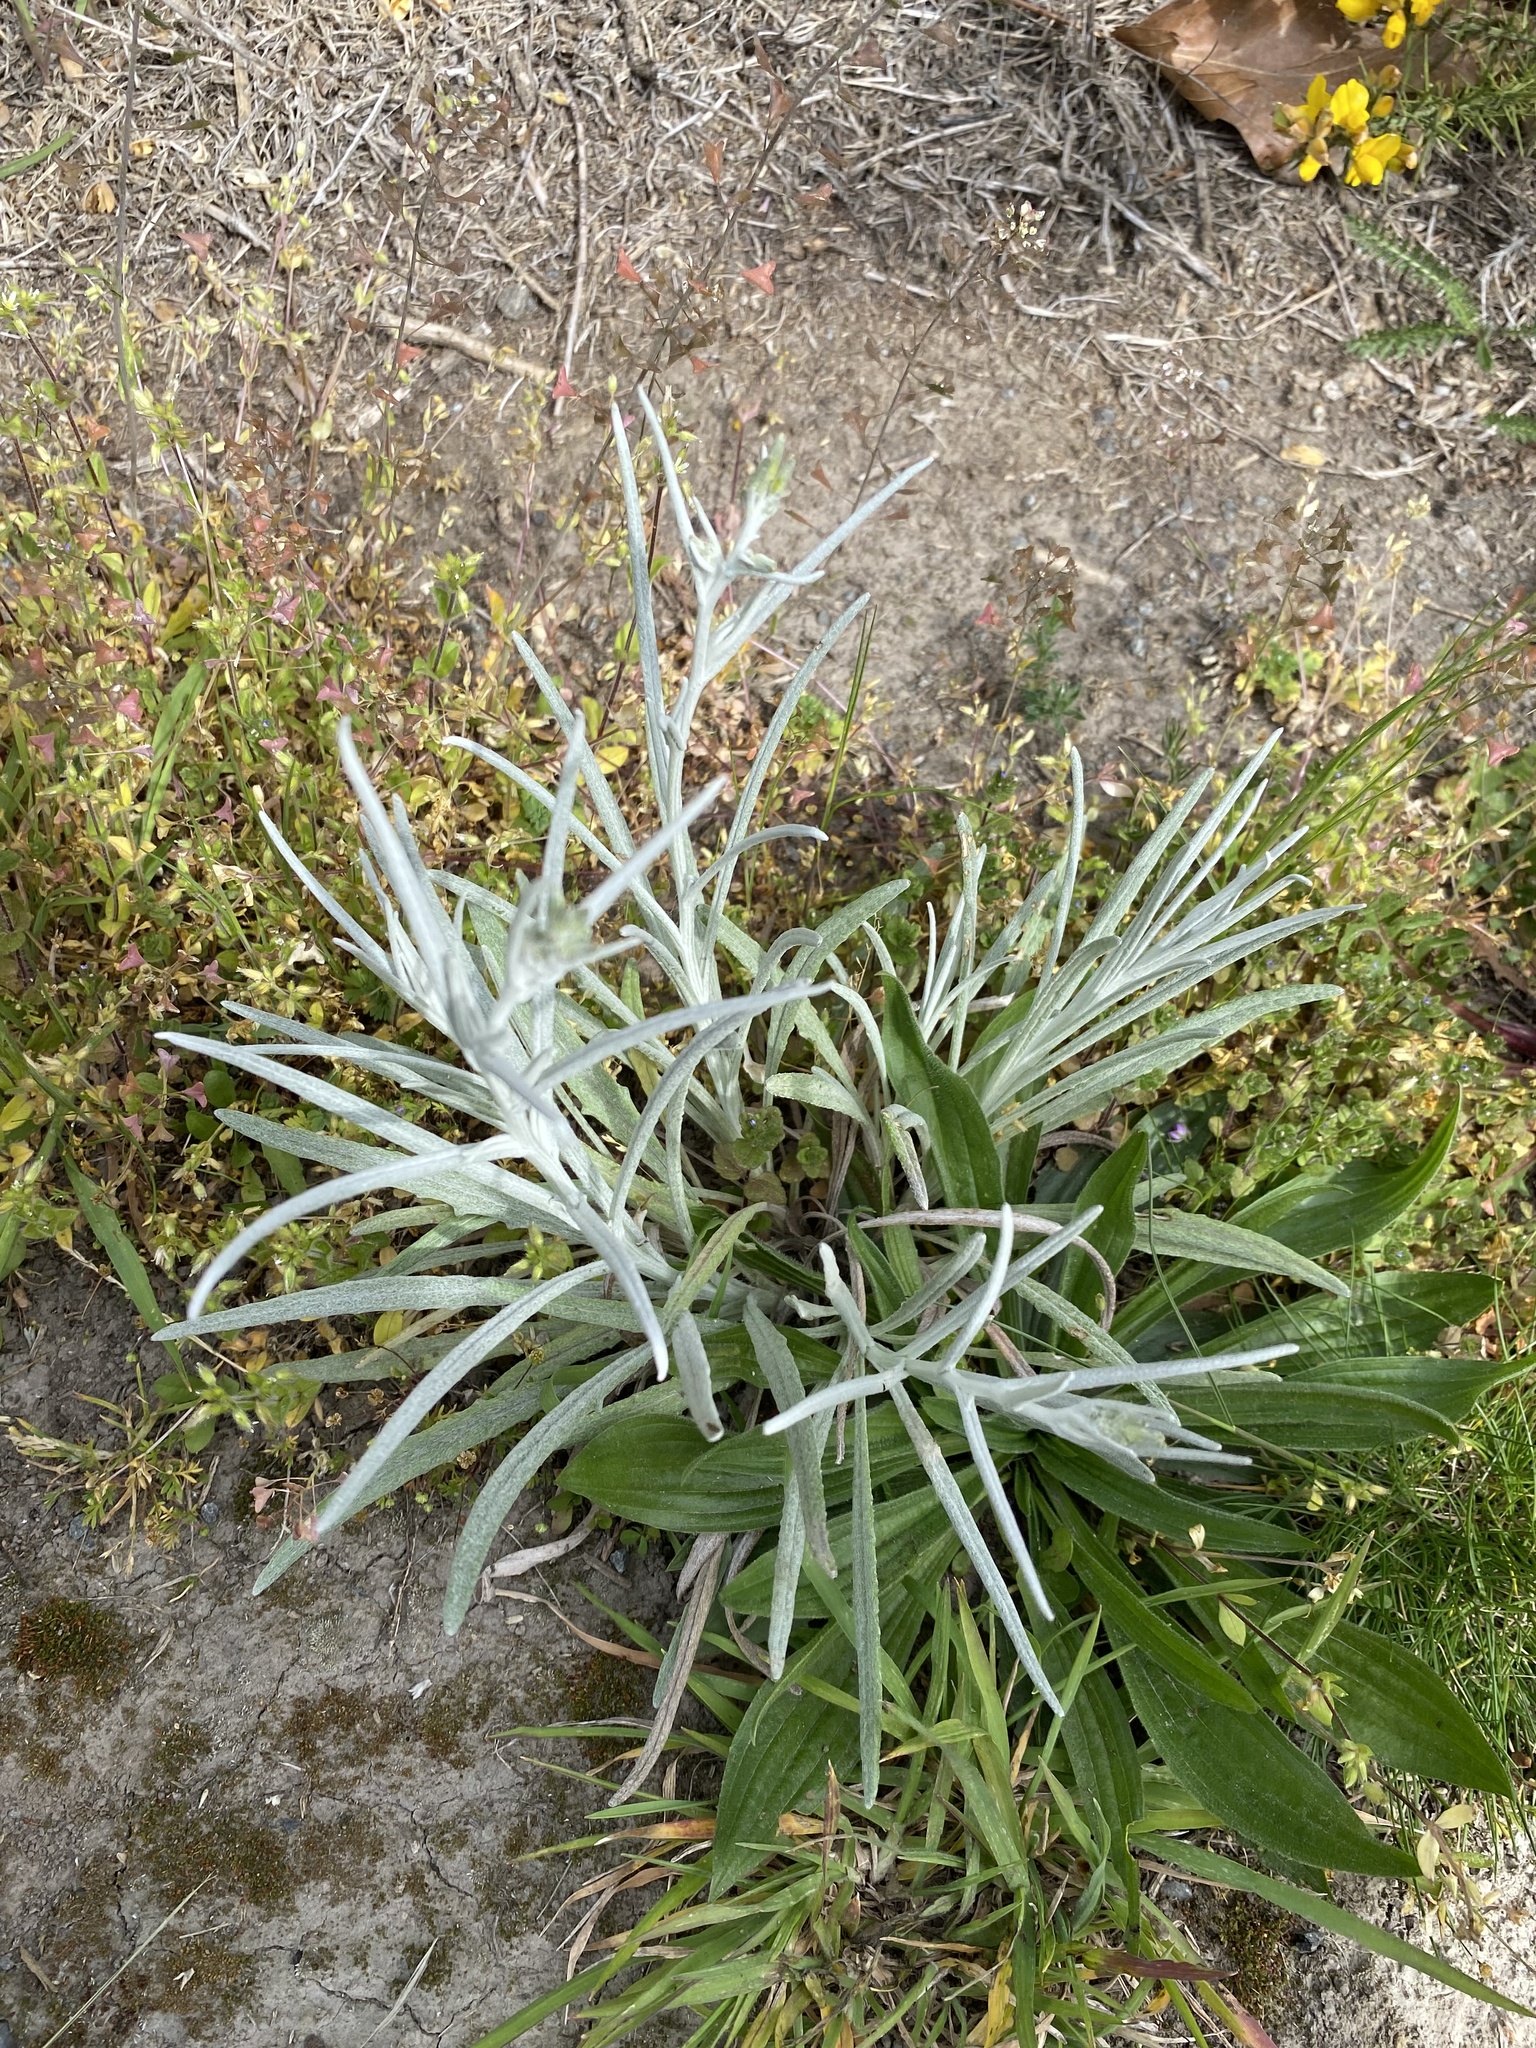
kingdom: Plantae
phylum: Tracheophyta
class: Magnoliopsida
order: Asterales
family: Asteraceae
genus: Senecio
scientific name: Senecio quadridentatus
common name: Cotton fireweed
